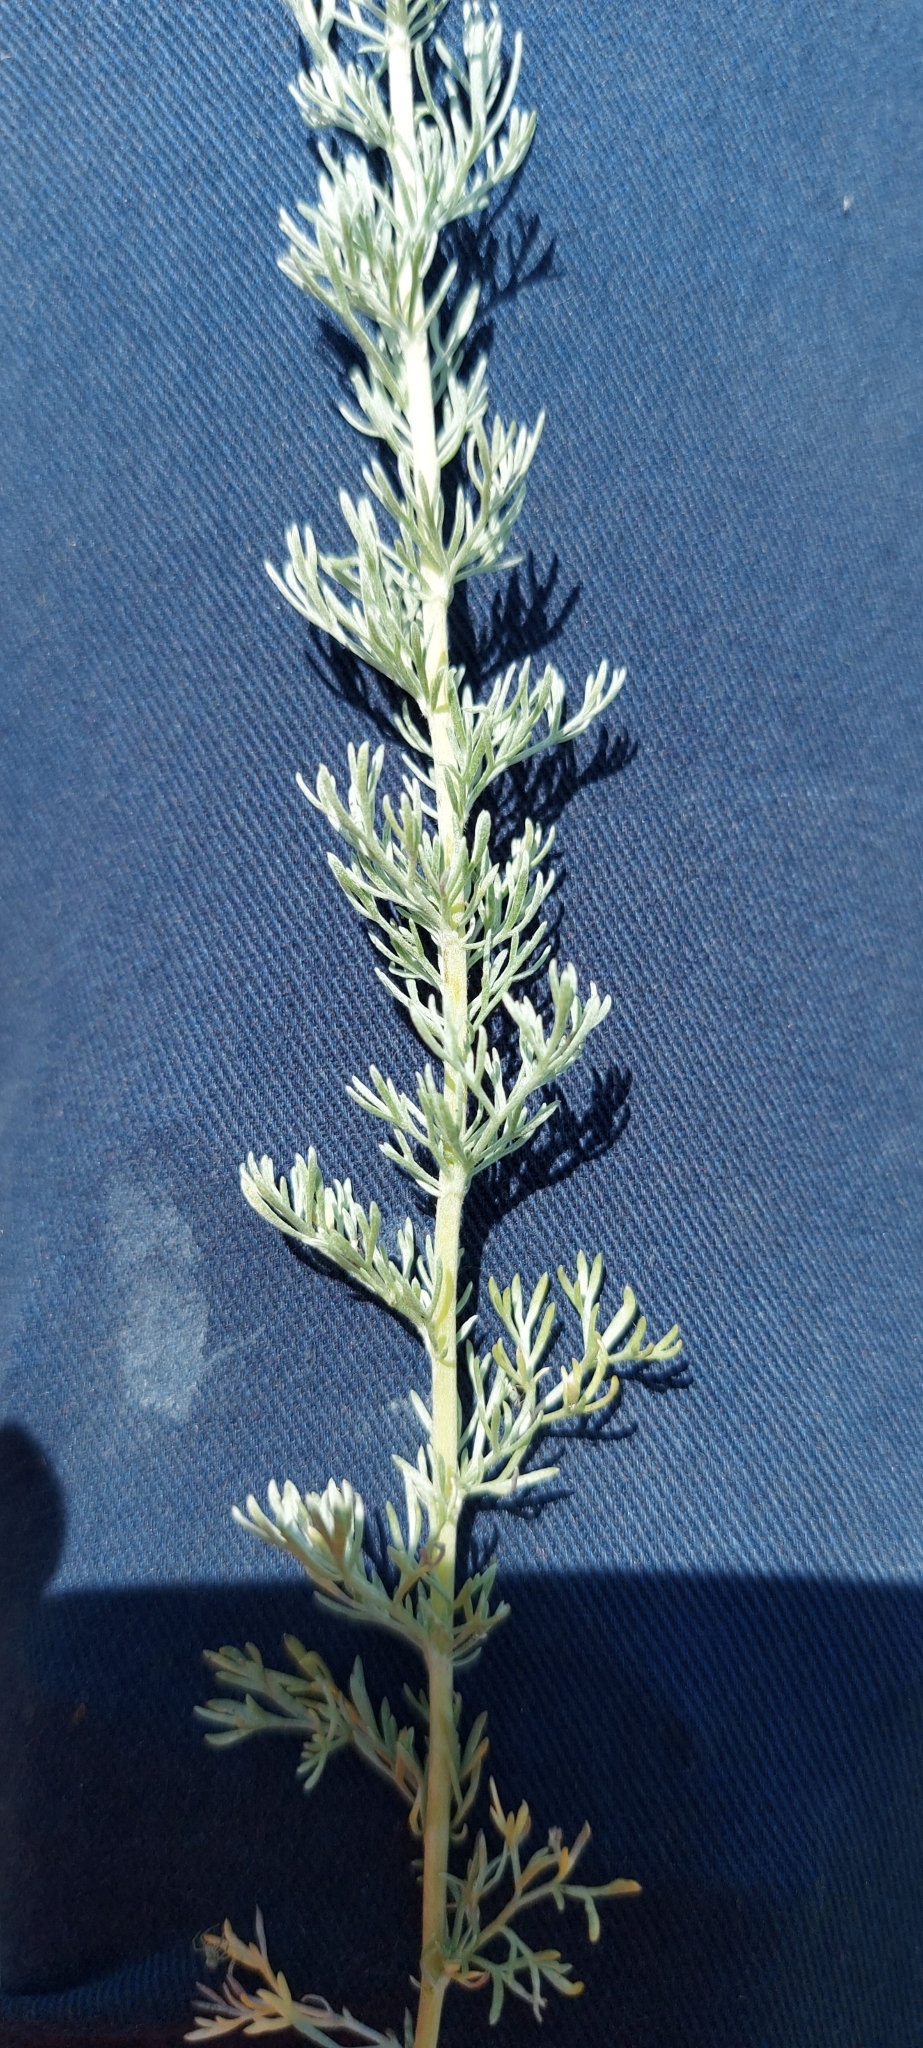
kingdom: Plantae
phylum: Tracheophyta
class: Magnoliopsida
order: Asterales
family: Asteraceae
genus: Artemisia
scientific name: Artemisia austriaca
